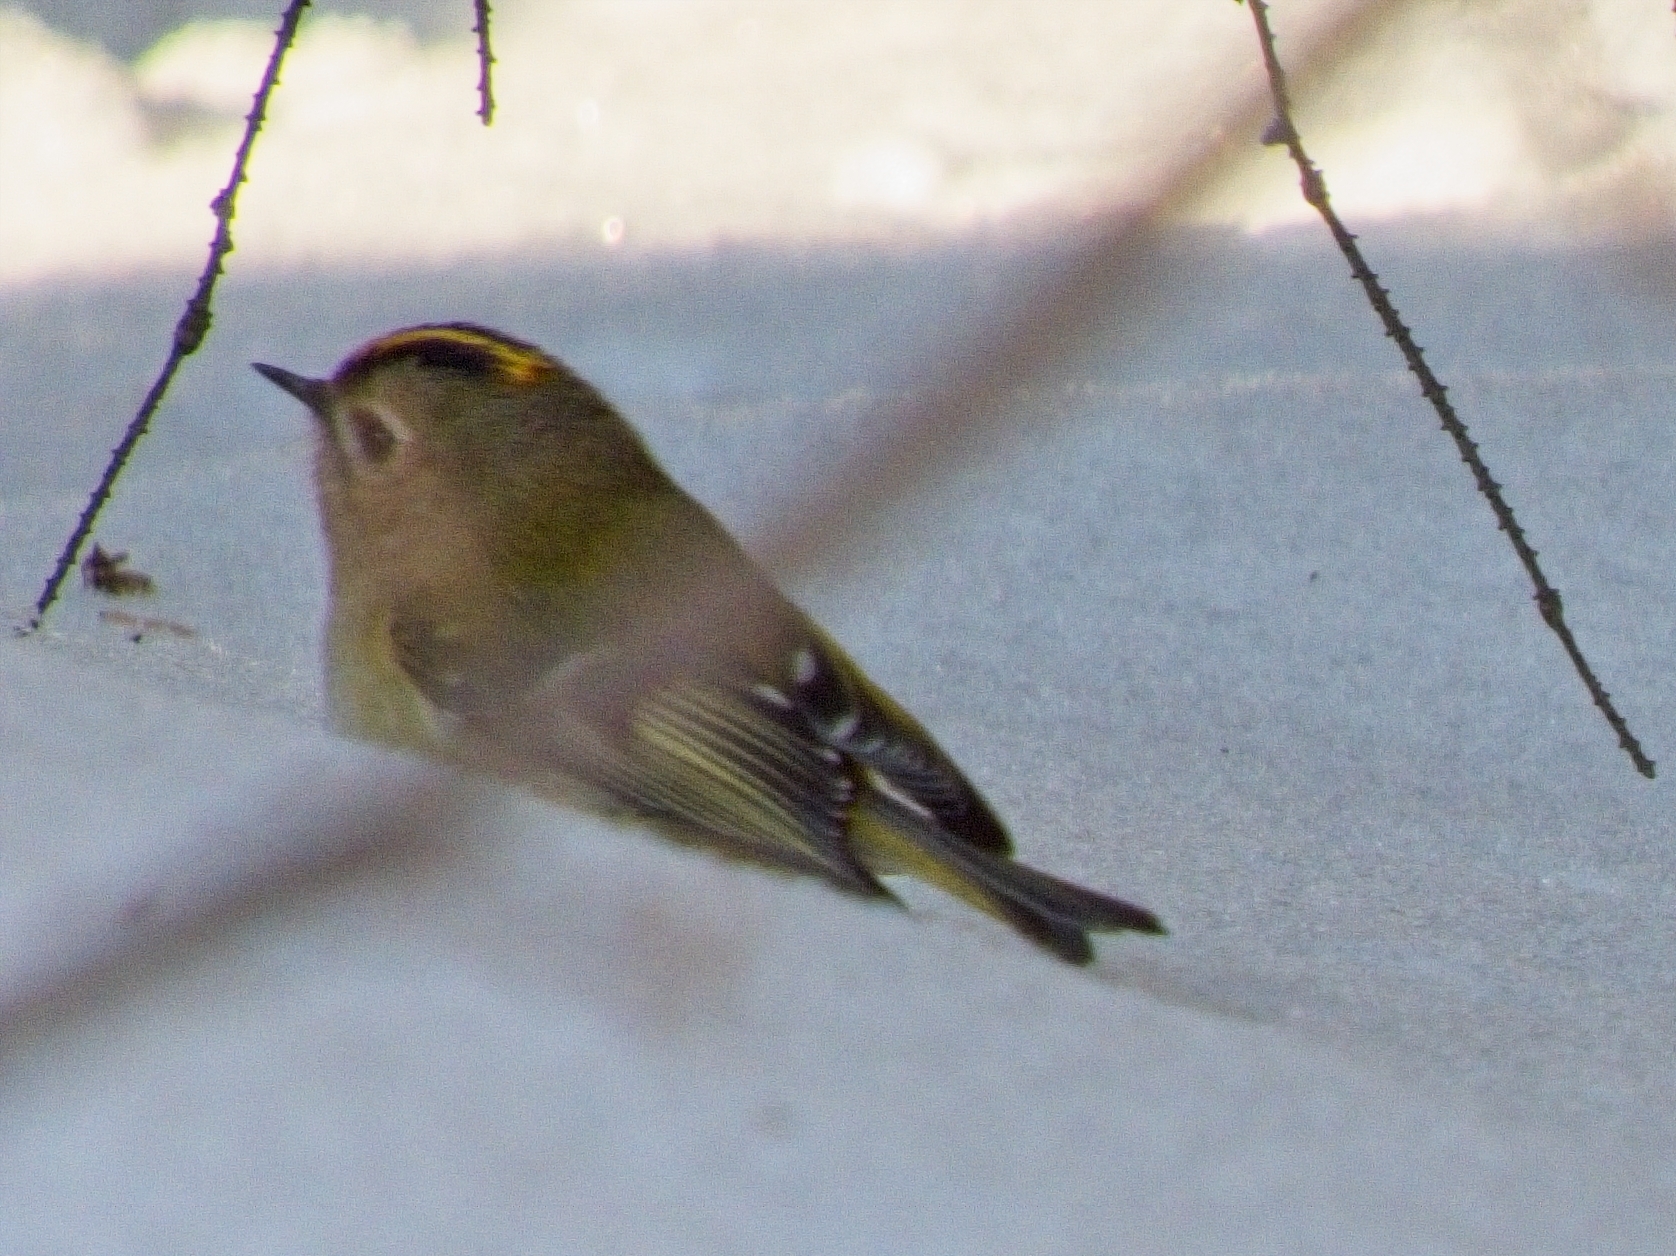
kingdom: Animalia
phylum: Chordata
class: Aves
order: Passeriformes
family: Regulidae
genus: Regulus
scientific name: Regulus regulus
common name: Goldcrest
